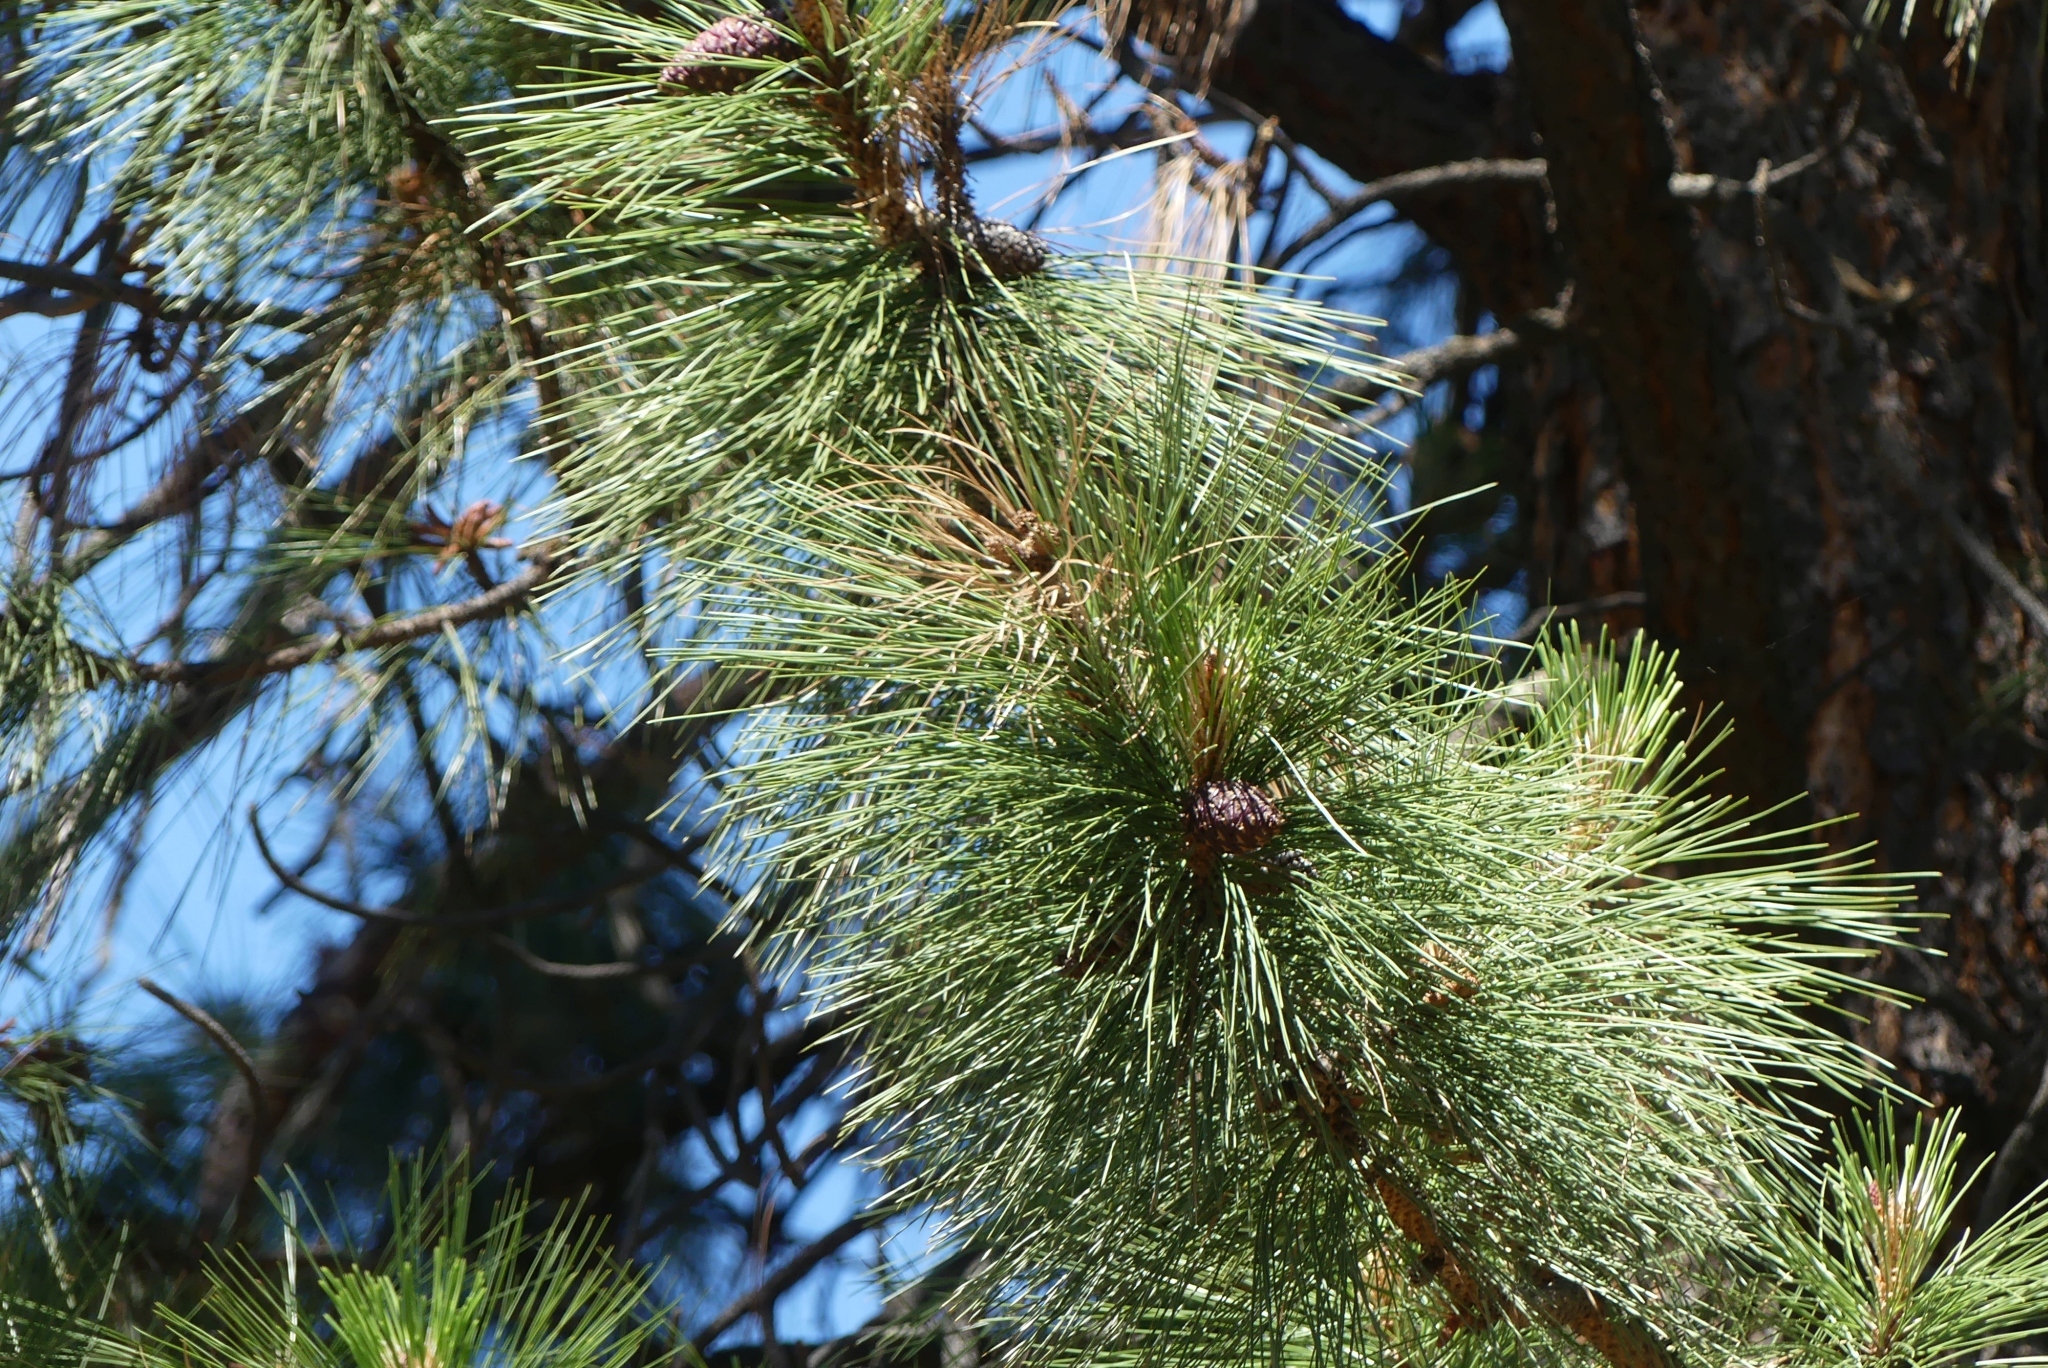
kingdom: Plantae
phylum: Tracheophyta
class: Pinopsida
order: Pinales
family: Pinaceae
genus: Pinus
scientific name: Pinus ponderosa
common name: Western yellow-pine
